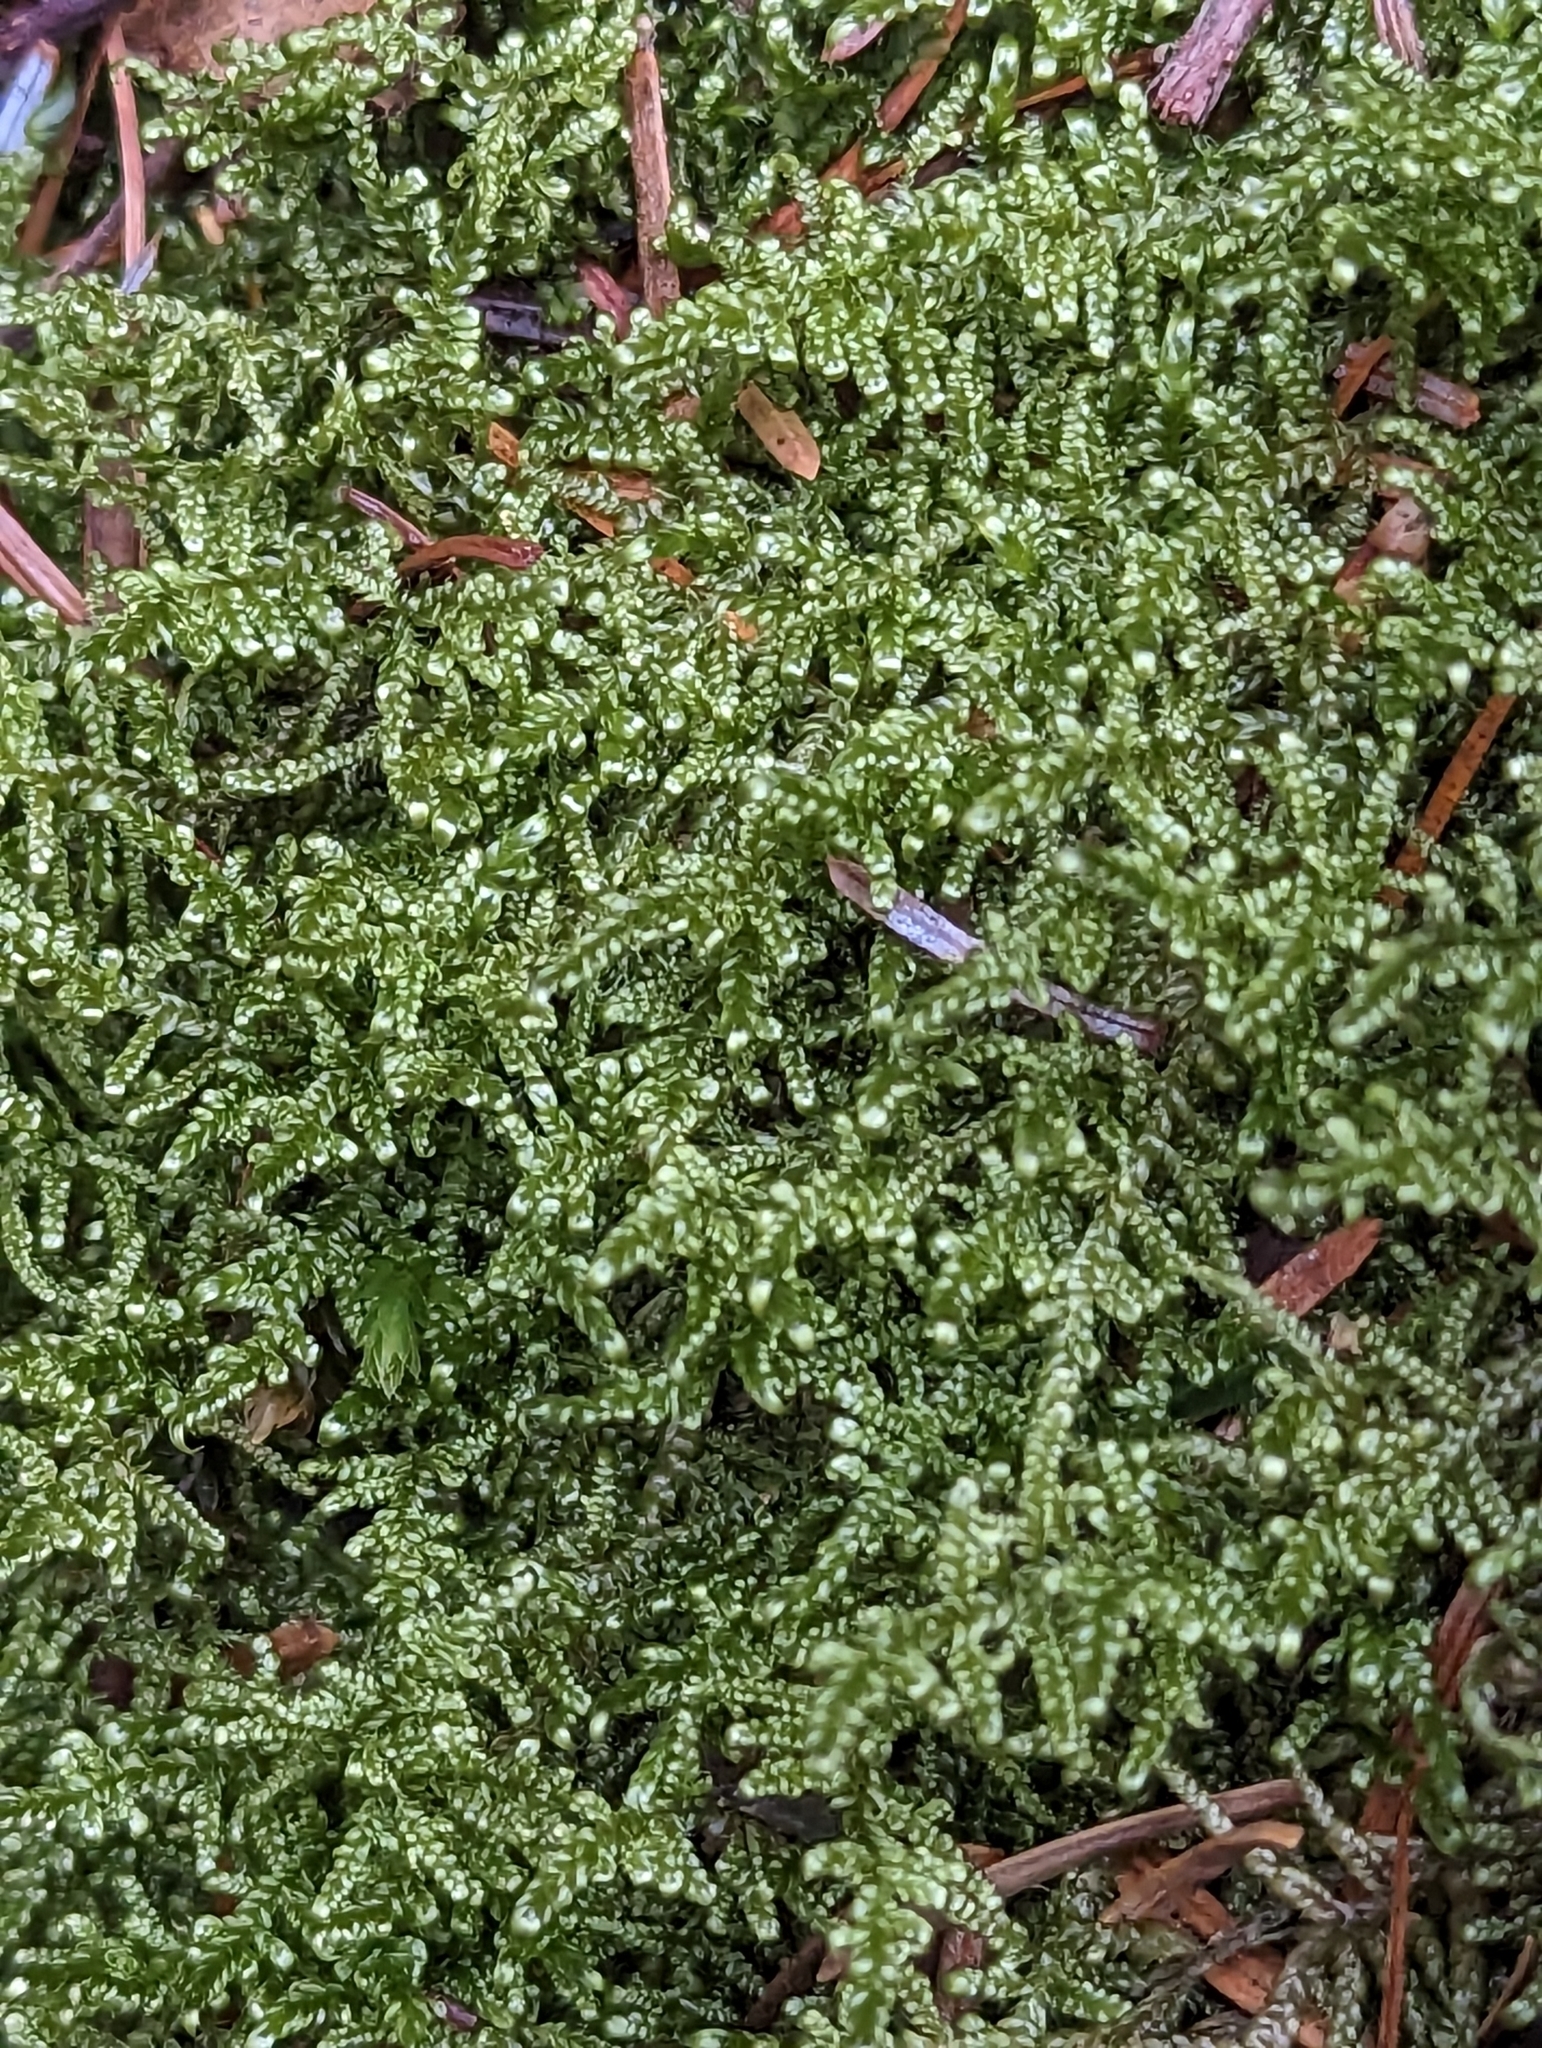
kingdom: Plantae
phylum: Bryophyta
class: Bryopsida
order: Hypnales
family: Hypnaceae
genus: Hypnum
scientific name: Hypnum jutlandicum
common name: Heath plait-moss
